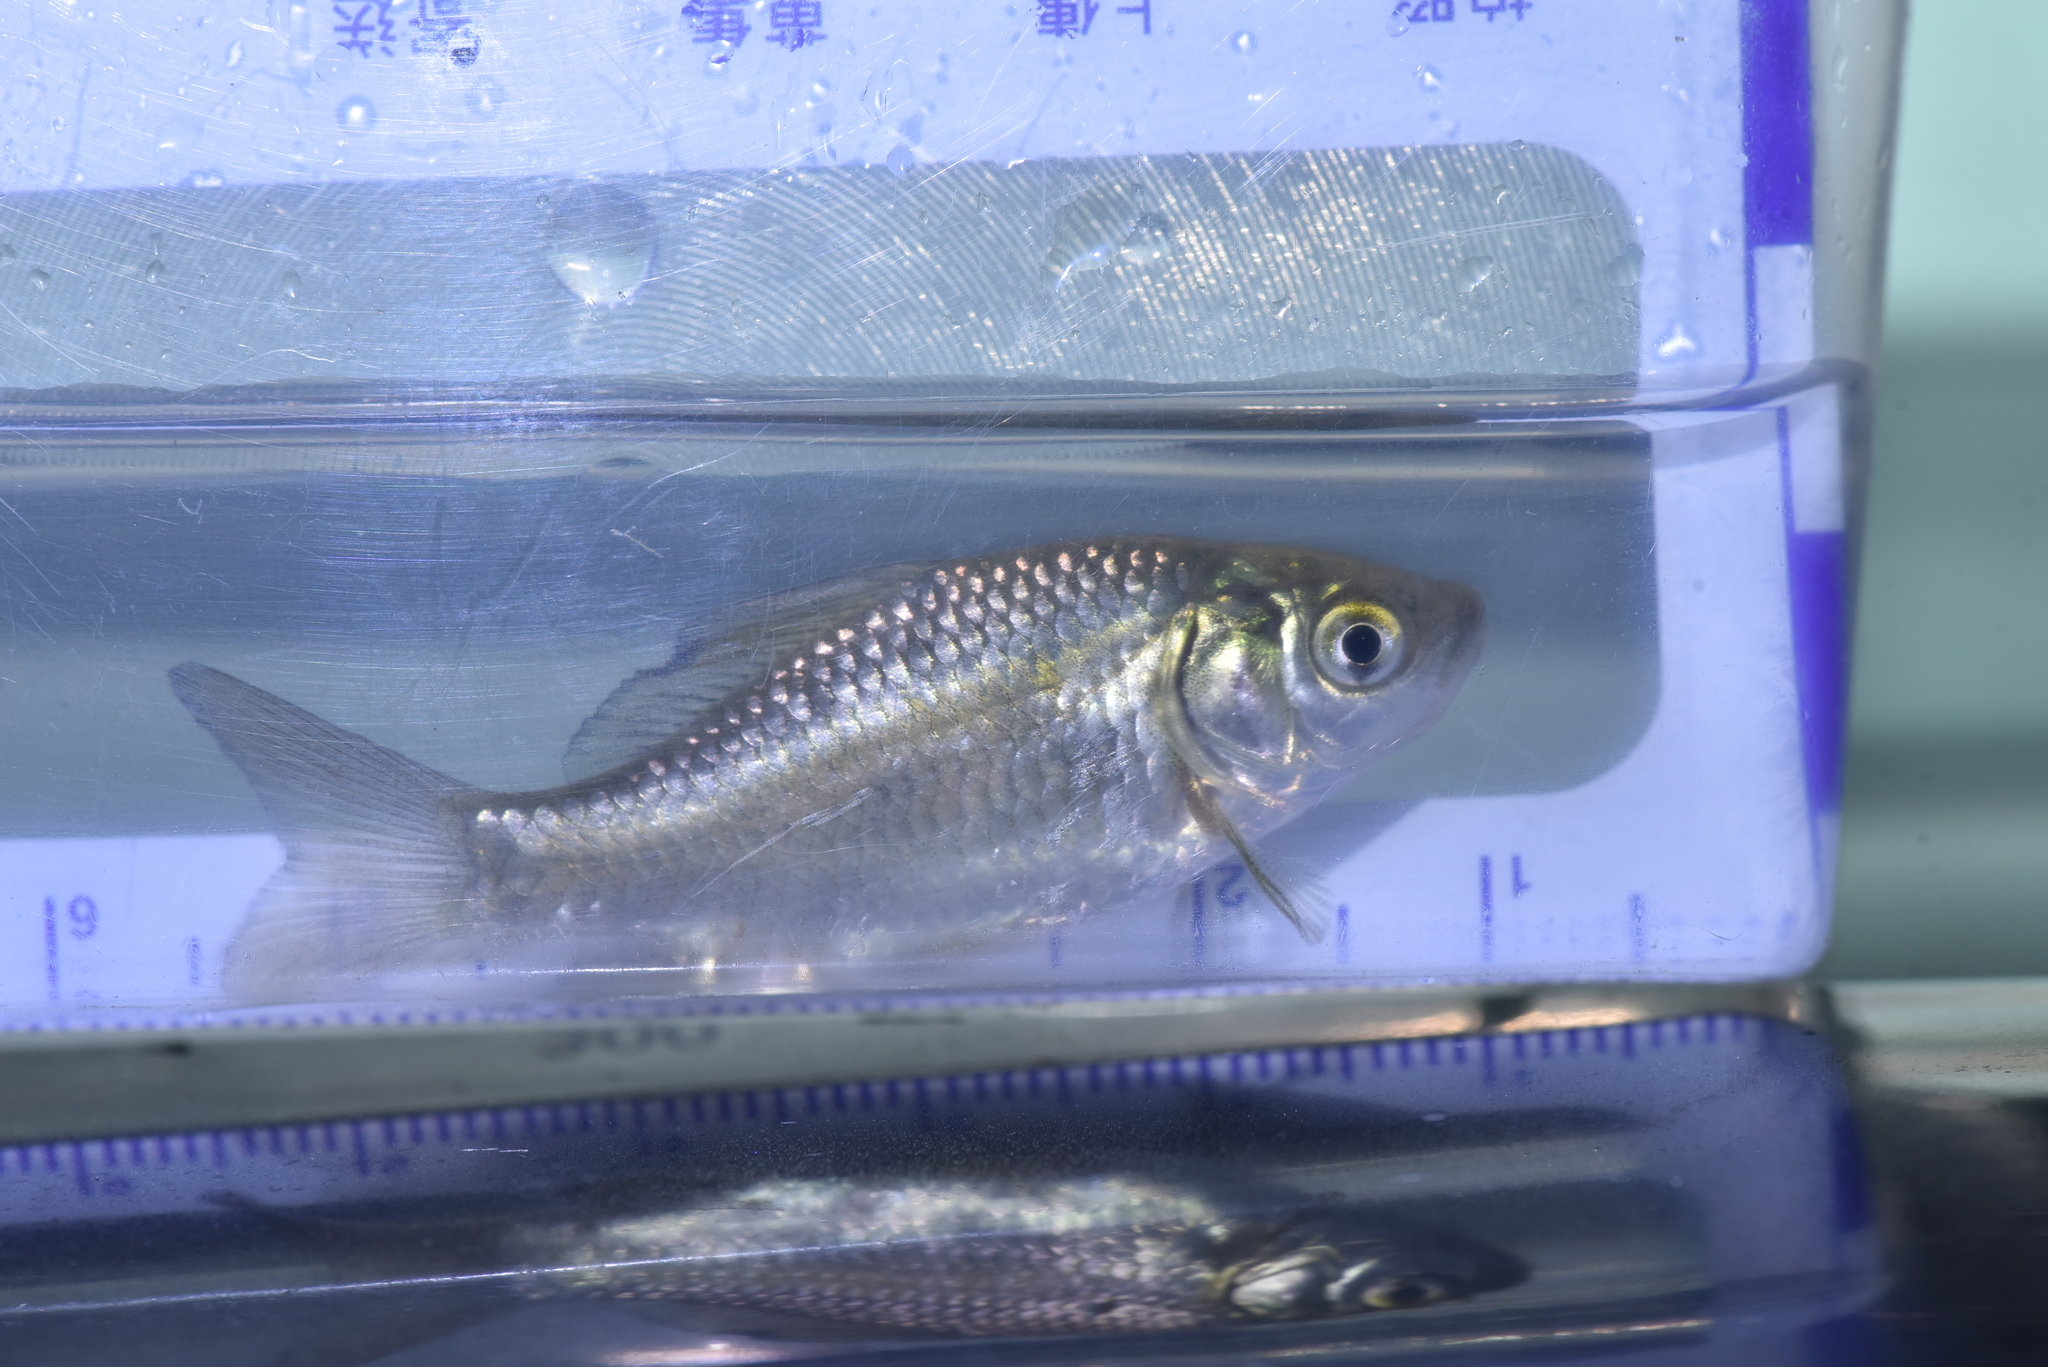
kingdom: Animalia
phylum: Chordata
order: Cypriniformes
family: Cyprinidae
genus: Carassius
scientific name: Carassius auratus
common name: Goldfish
